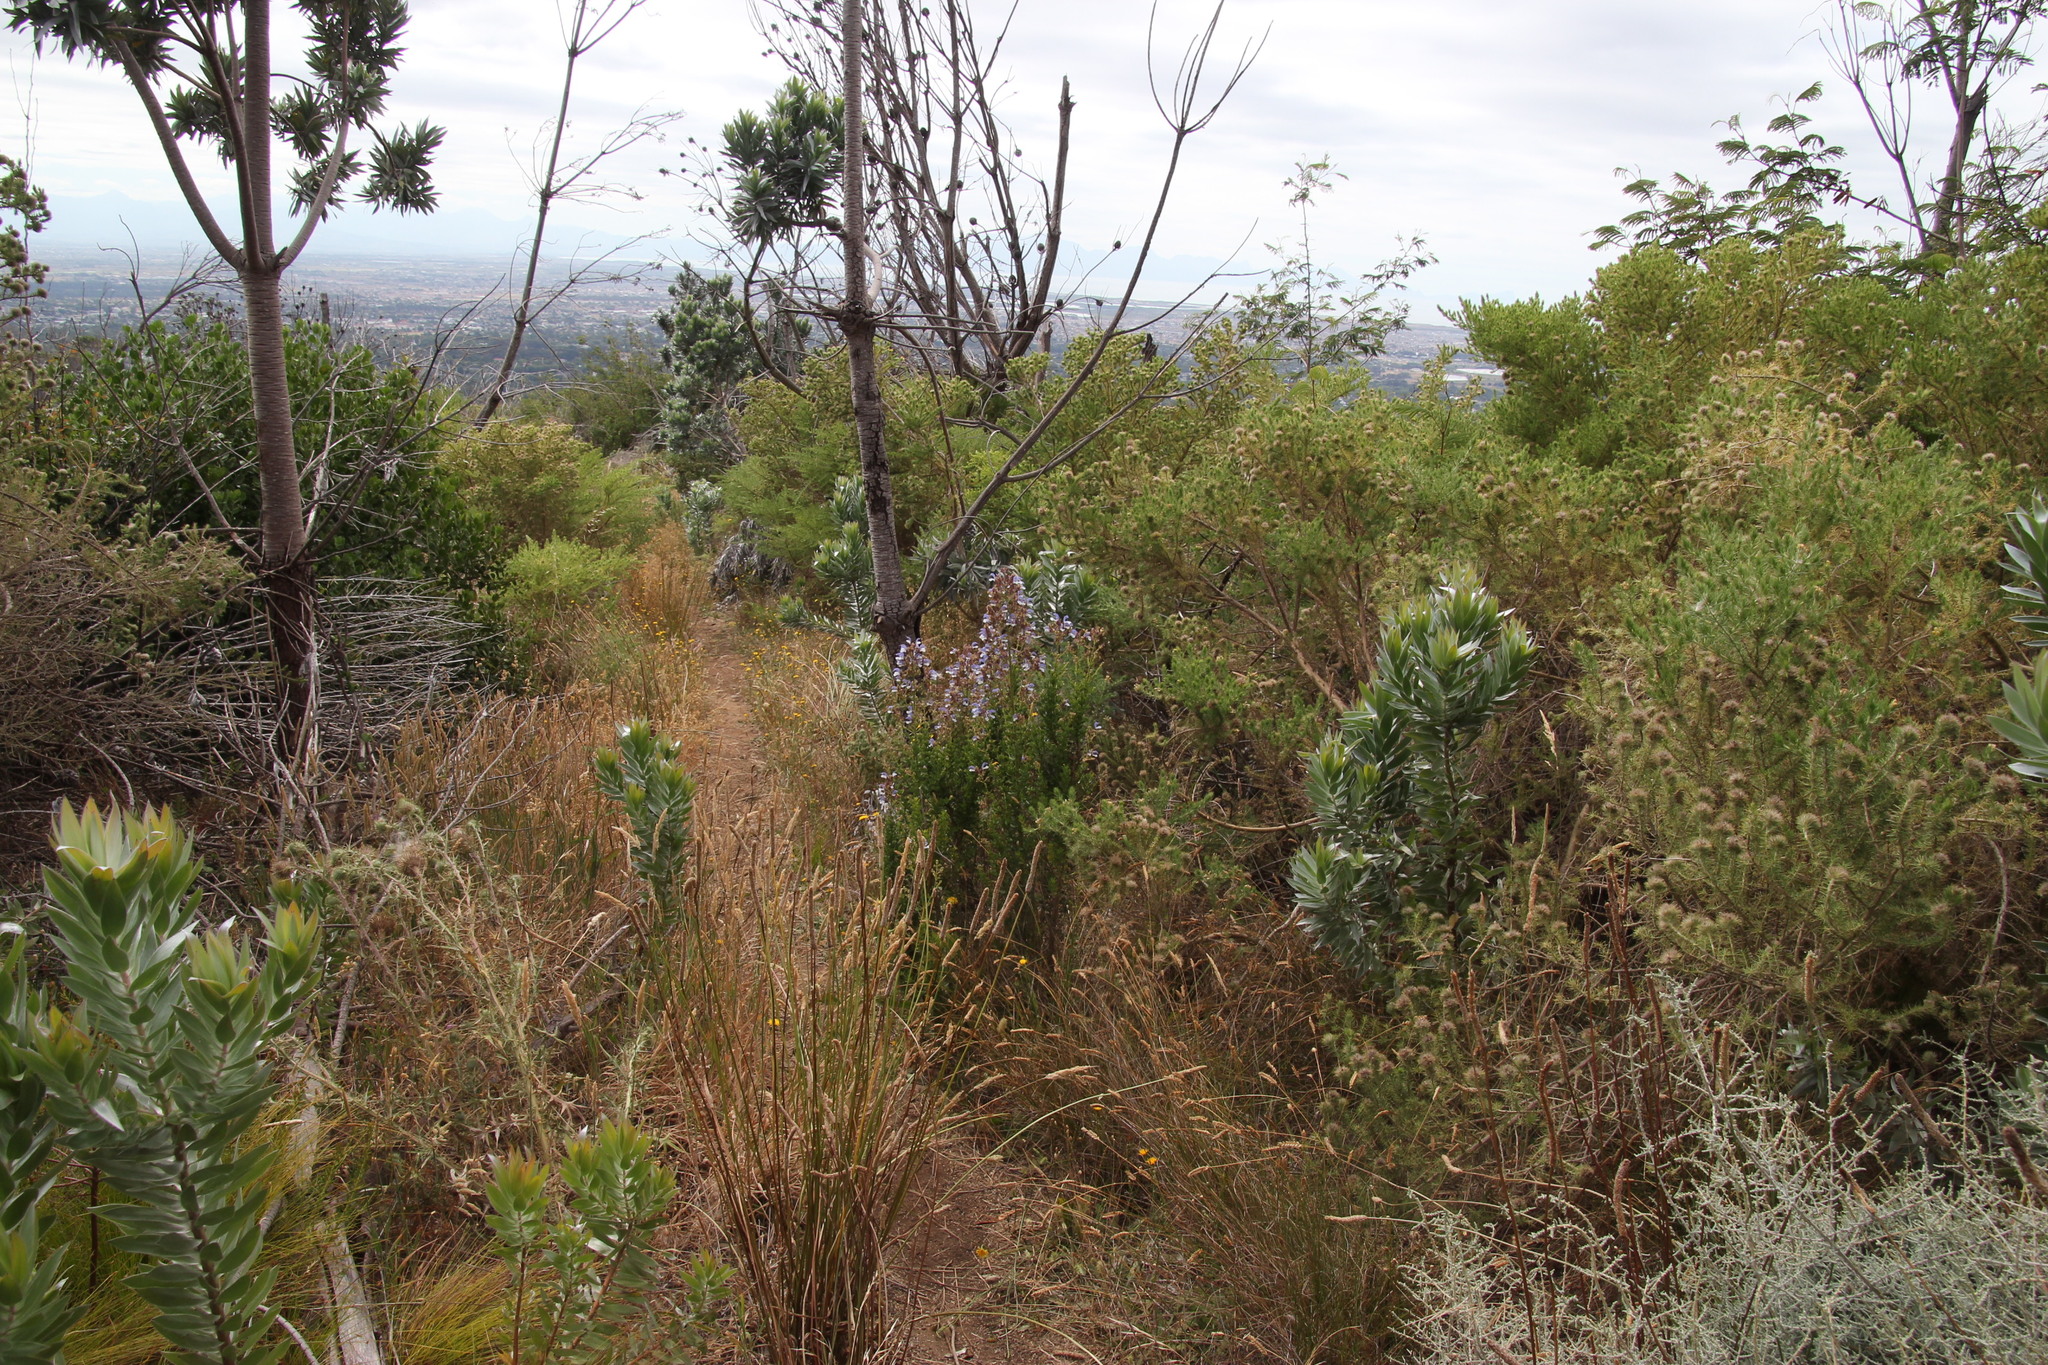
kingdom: Plantae
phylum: Tracheophyta
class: Magnoliopsida
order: Proteales
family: Proteaceae
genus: Leucadendron
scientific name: Leucadendron argenteum
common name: Cape silver tree
